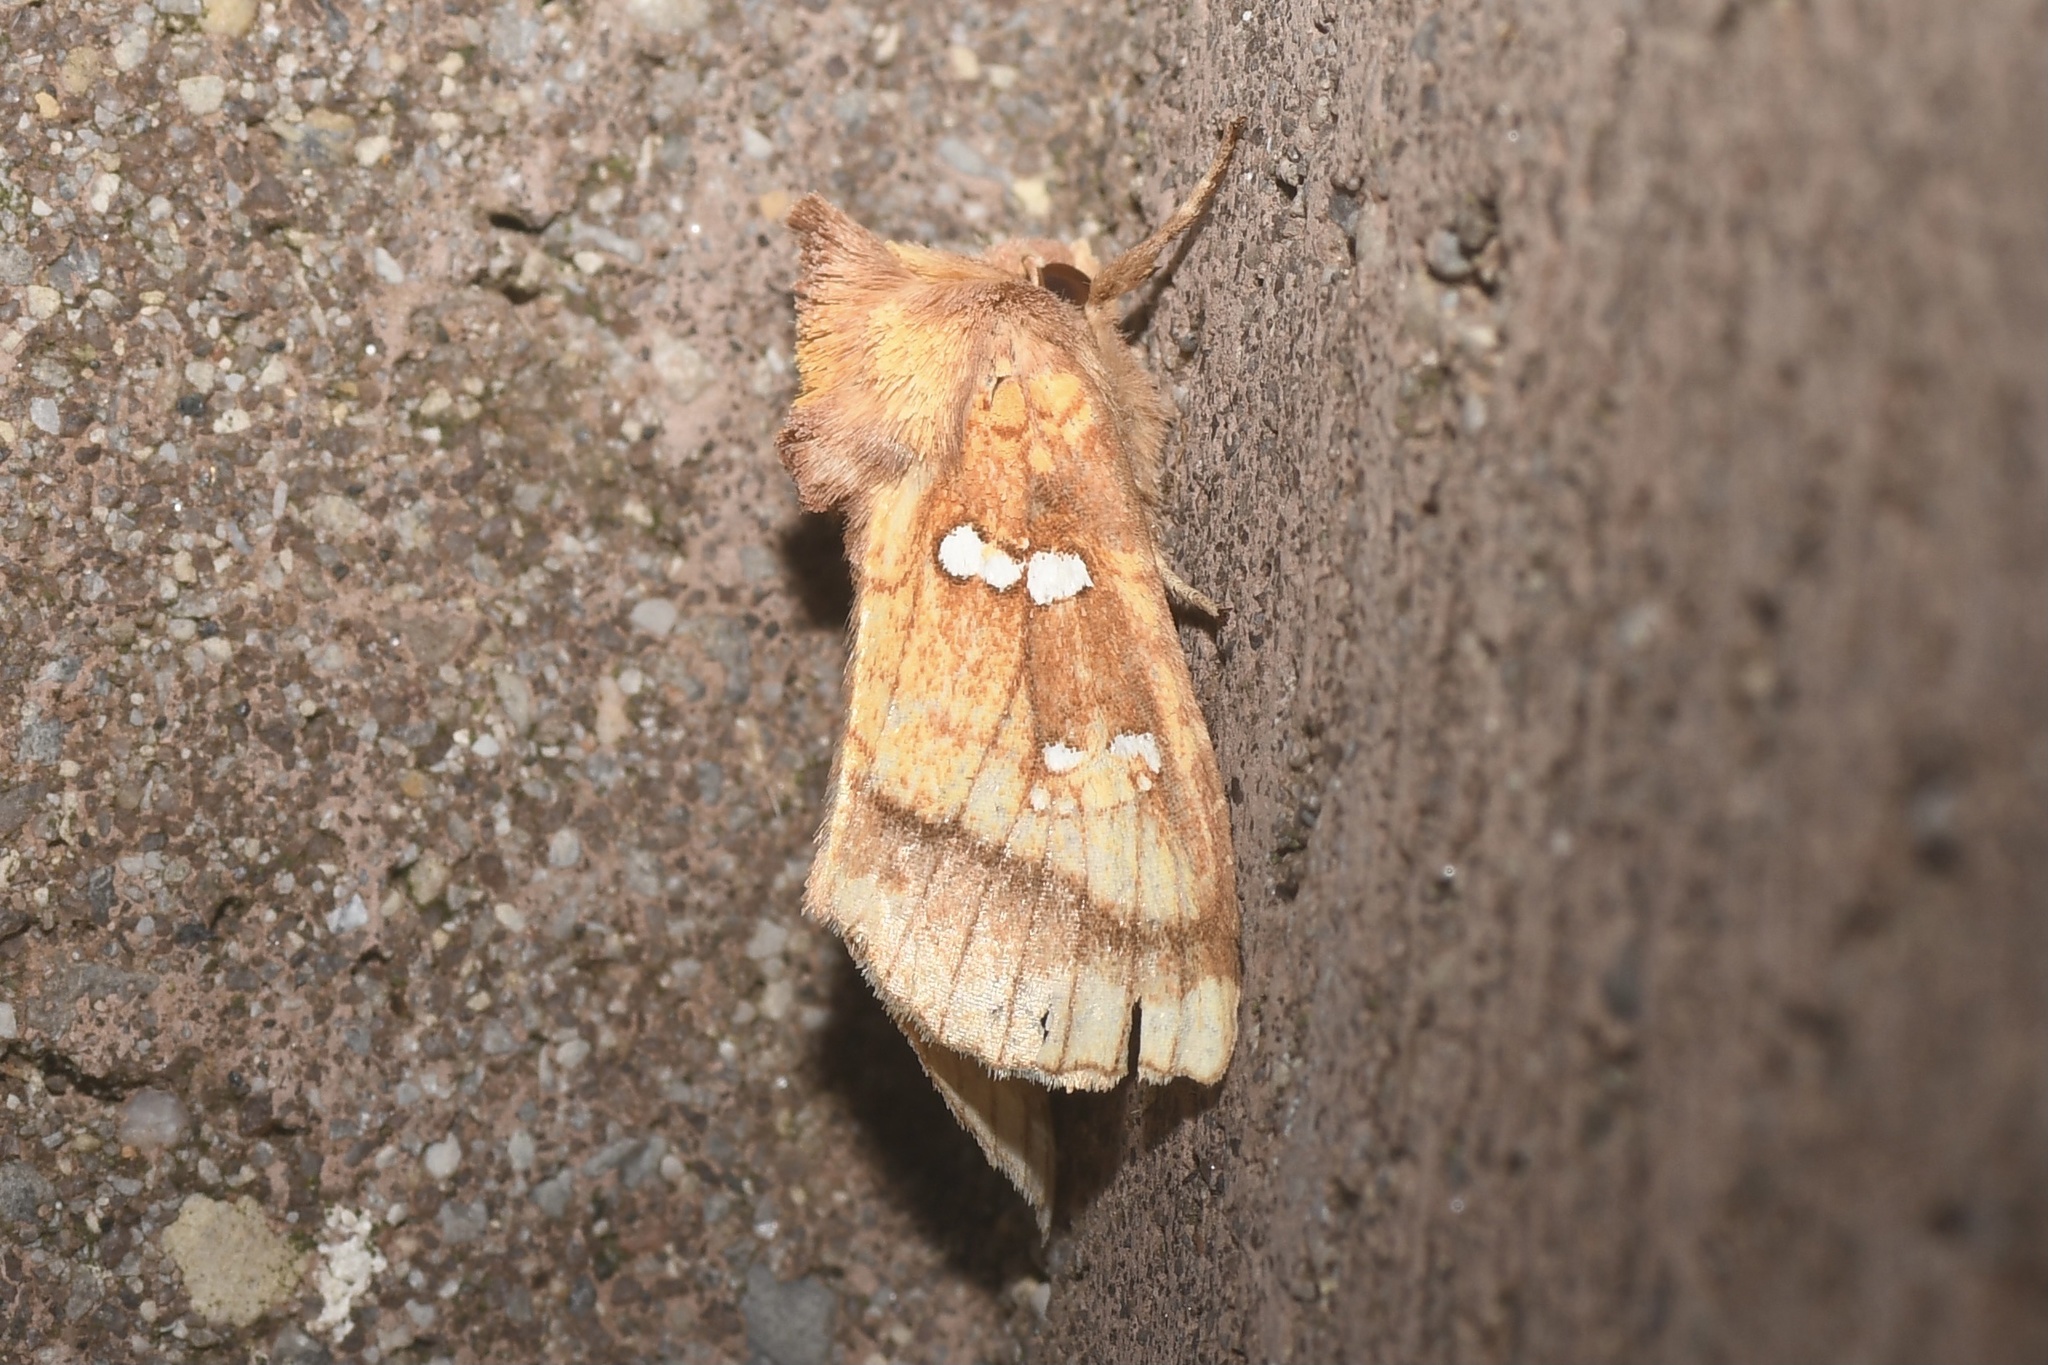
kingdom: Animalia
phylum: Arthropoda
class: Insecta
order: Lepidoptera
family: Noctuidae
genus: Papaipema
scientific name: Papaipema pterisii
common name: Bracken borer moth
